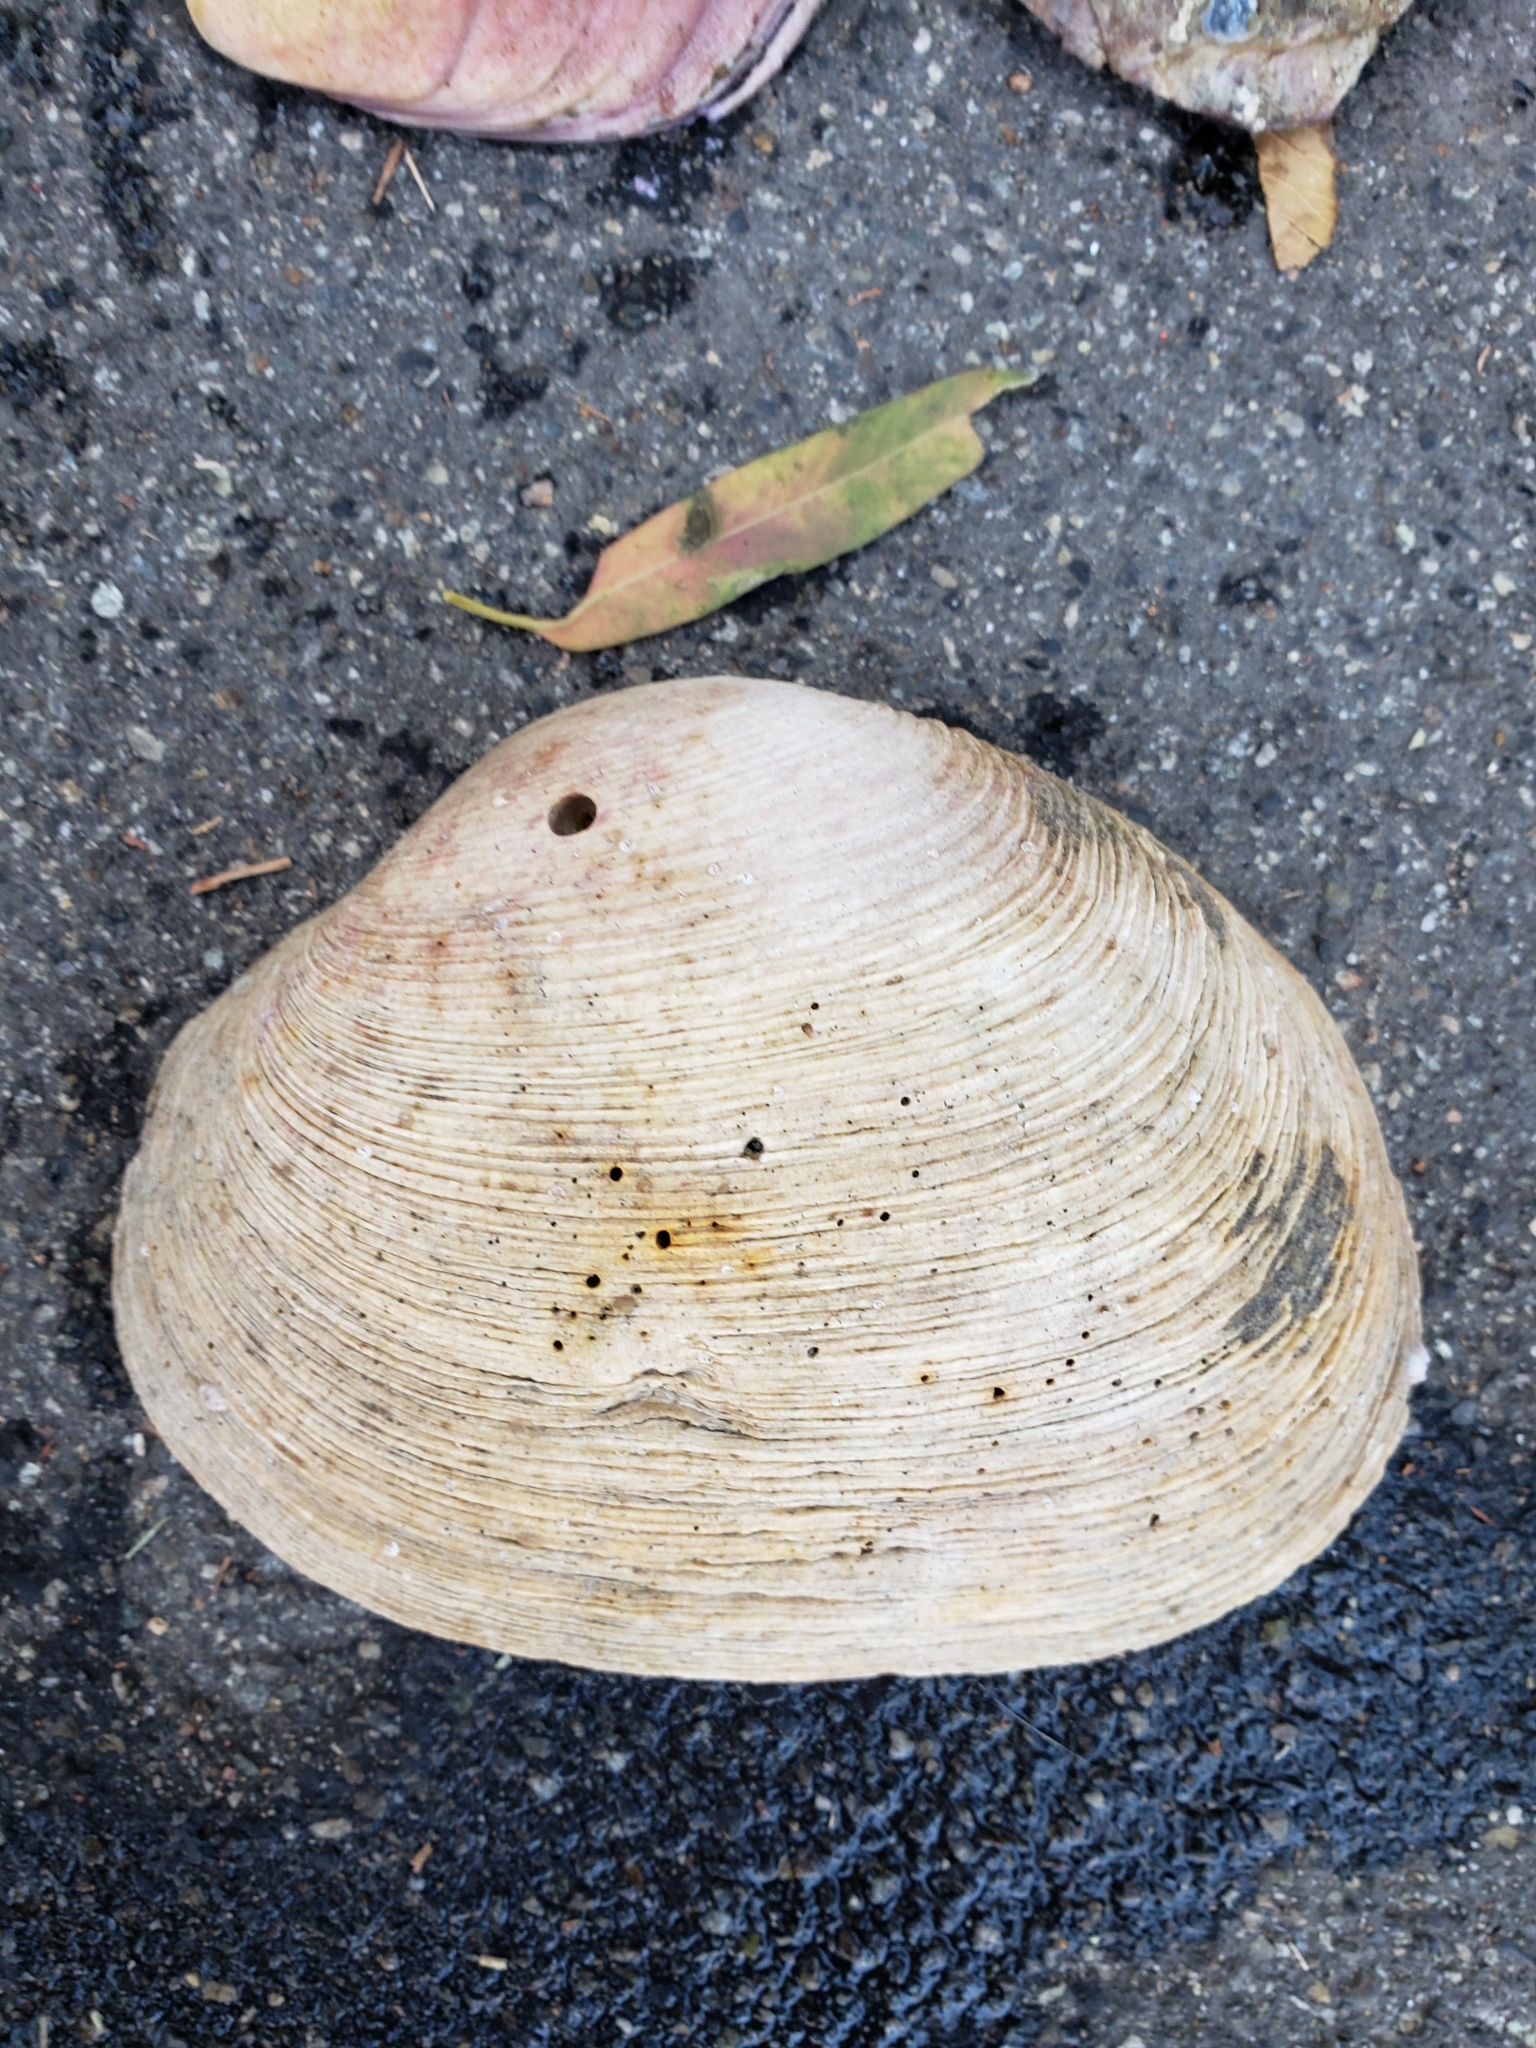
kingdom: Animalia
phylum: Mollusca
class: Bivalvia
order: Venerida
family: Veneridae
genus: Saxidomus
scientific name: Saxidomus nuttalli
